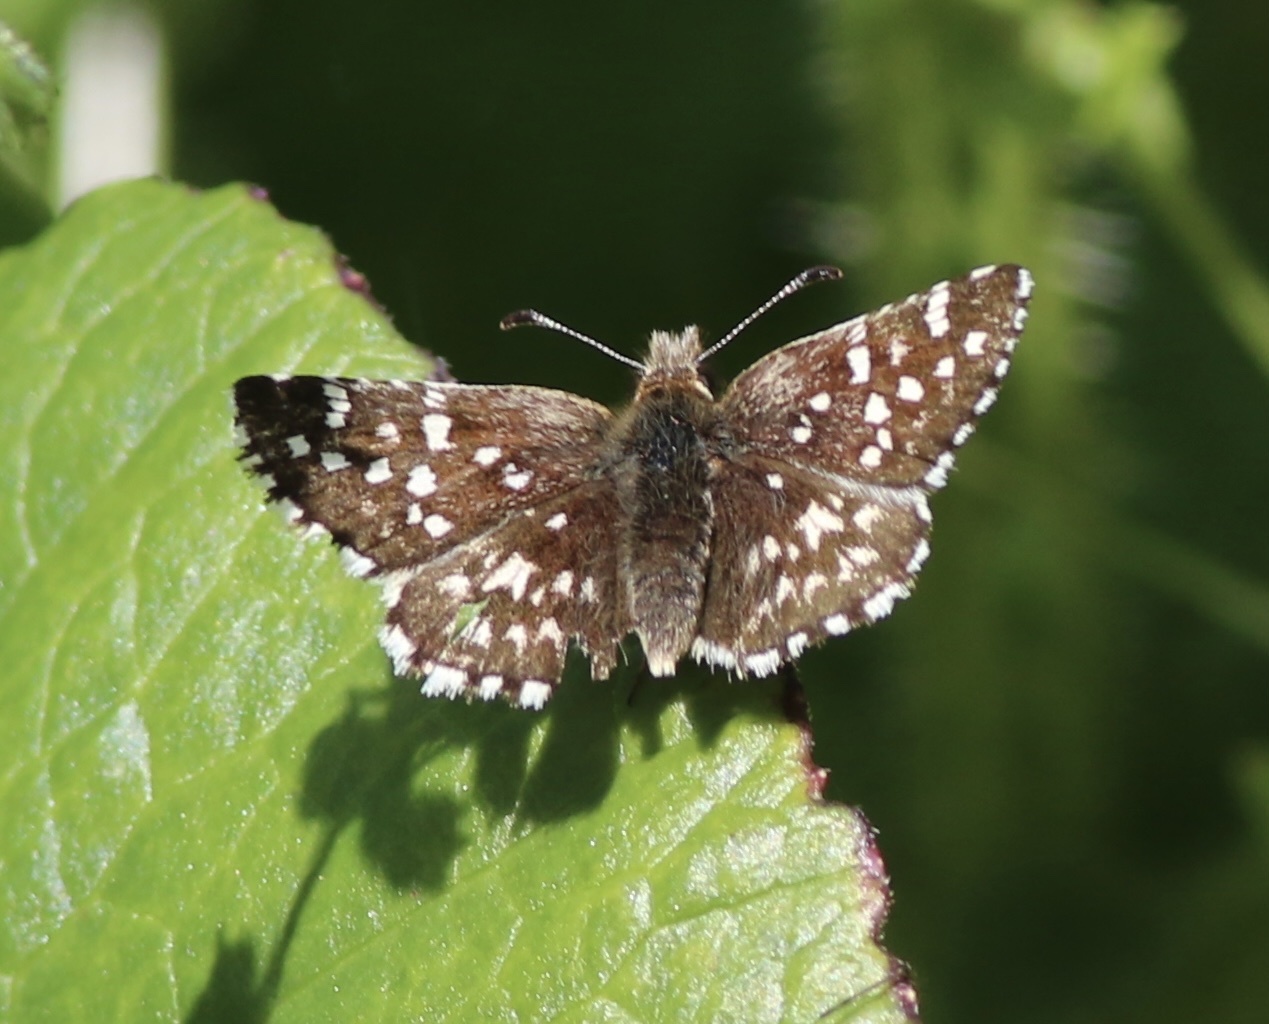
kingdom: Animalia
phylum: Arthropoda
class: Insecta
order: Lepidoptera
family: Hesperiidae
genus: Pyrgus
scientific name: Pyrgus ruralis
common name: Two-banded checkered-skipper
